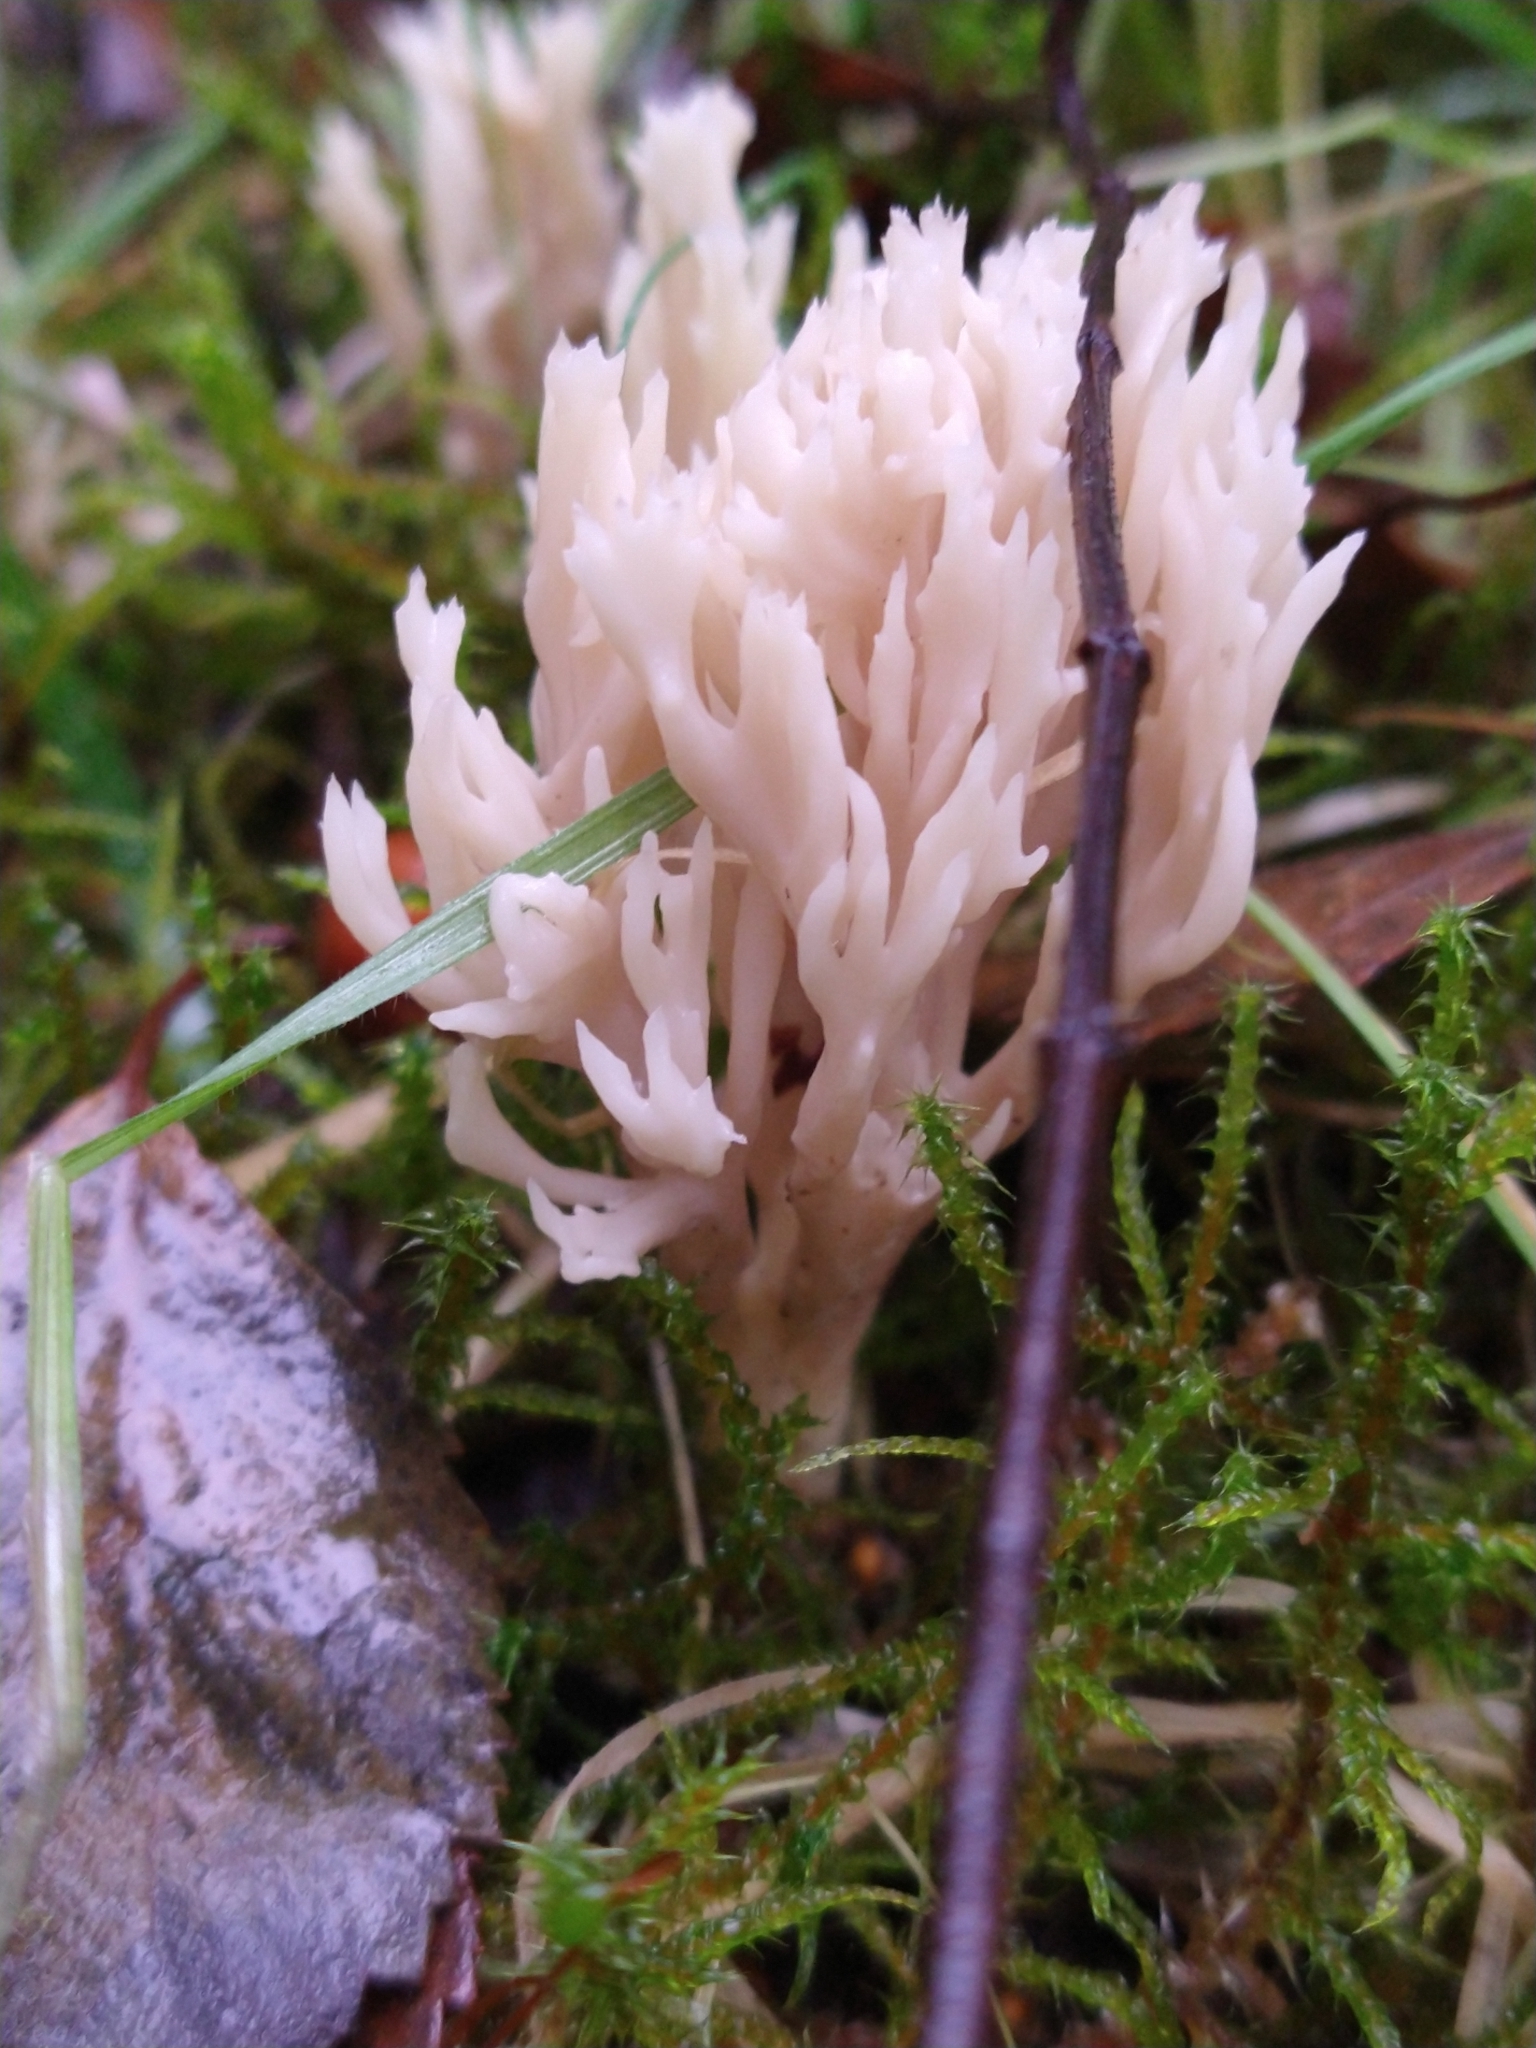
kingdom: Fungi
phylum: Basidiomycota
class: Agaricomycetes
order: Cantharellales
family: Hydnaceae
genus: Clavulina
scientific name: Clavulina coralloides
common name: Crested coral
